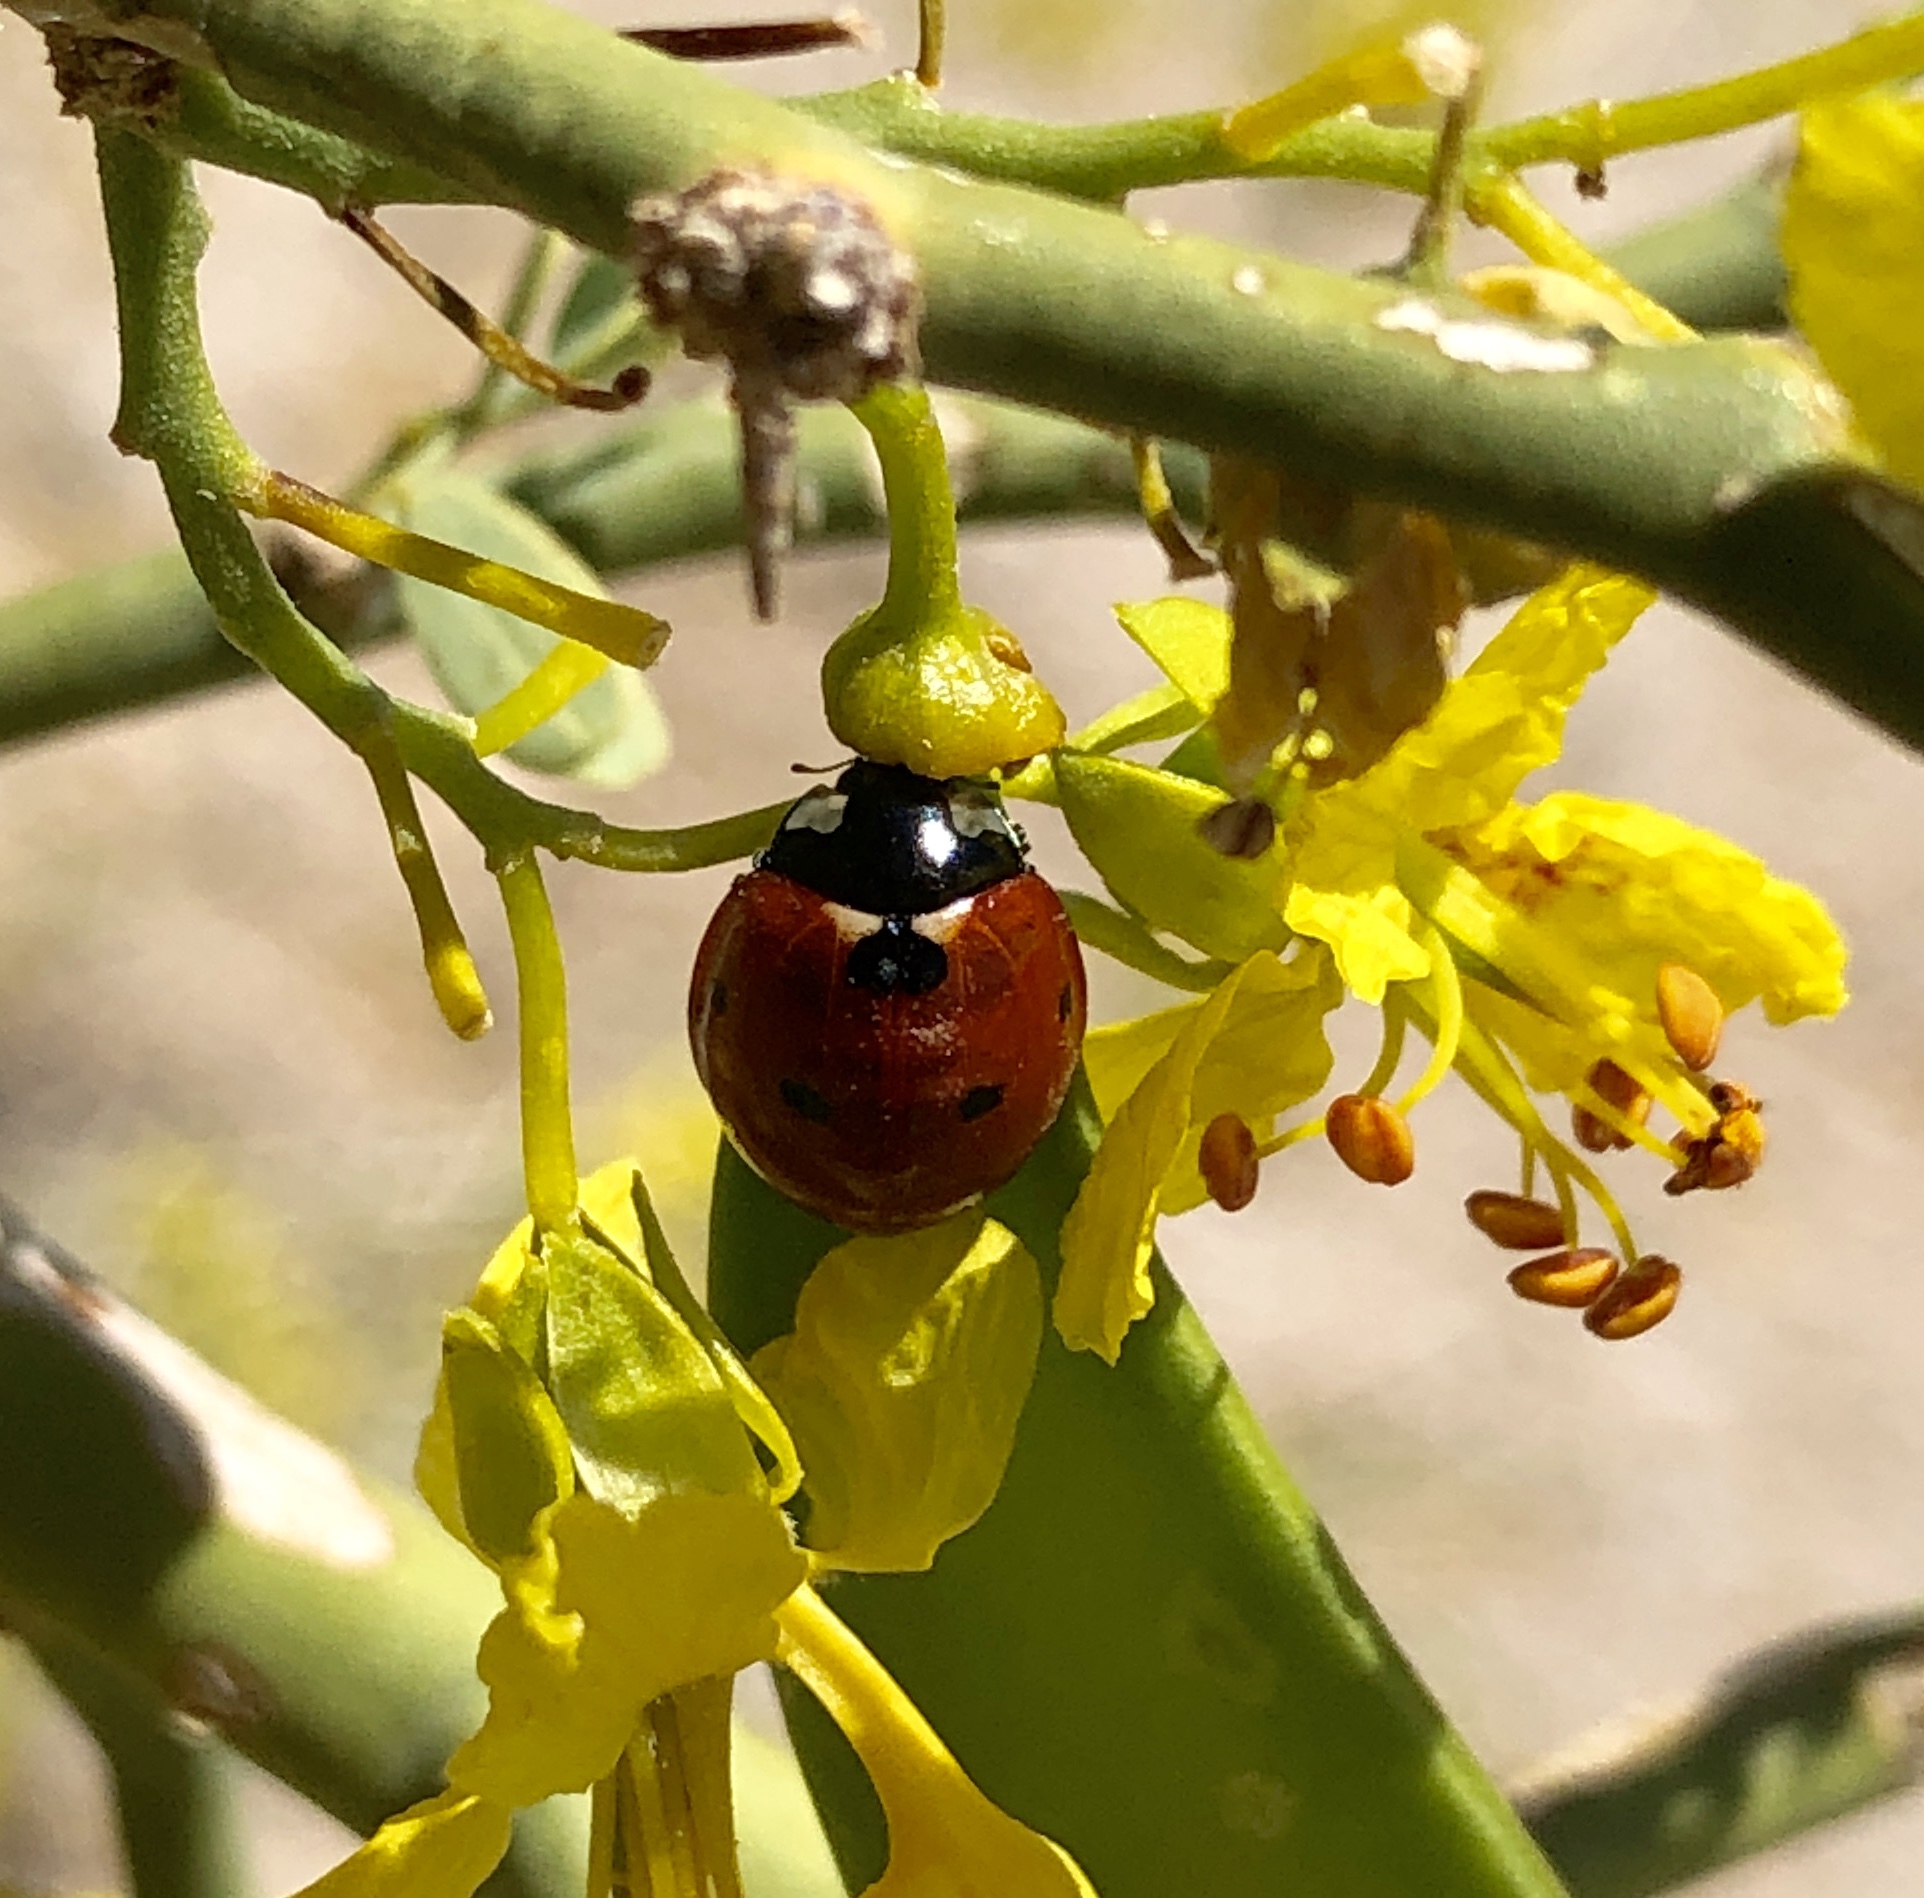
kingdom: Animalia
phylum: Arthropoda
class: Insecta
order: Coleoptera
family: Coccinellidae
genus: Coccinella
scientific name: Coccinella septempunctata
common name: Sevenspotted lady beetle
